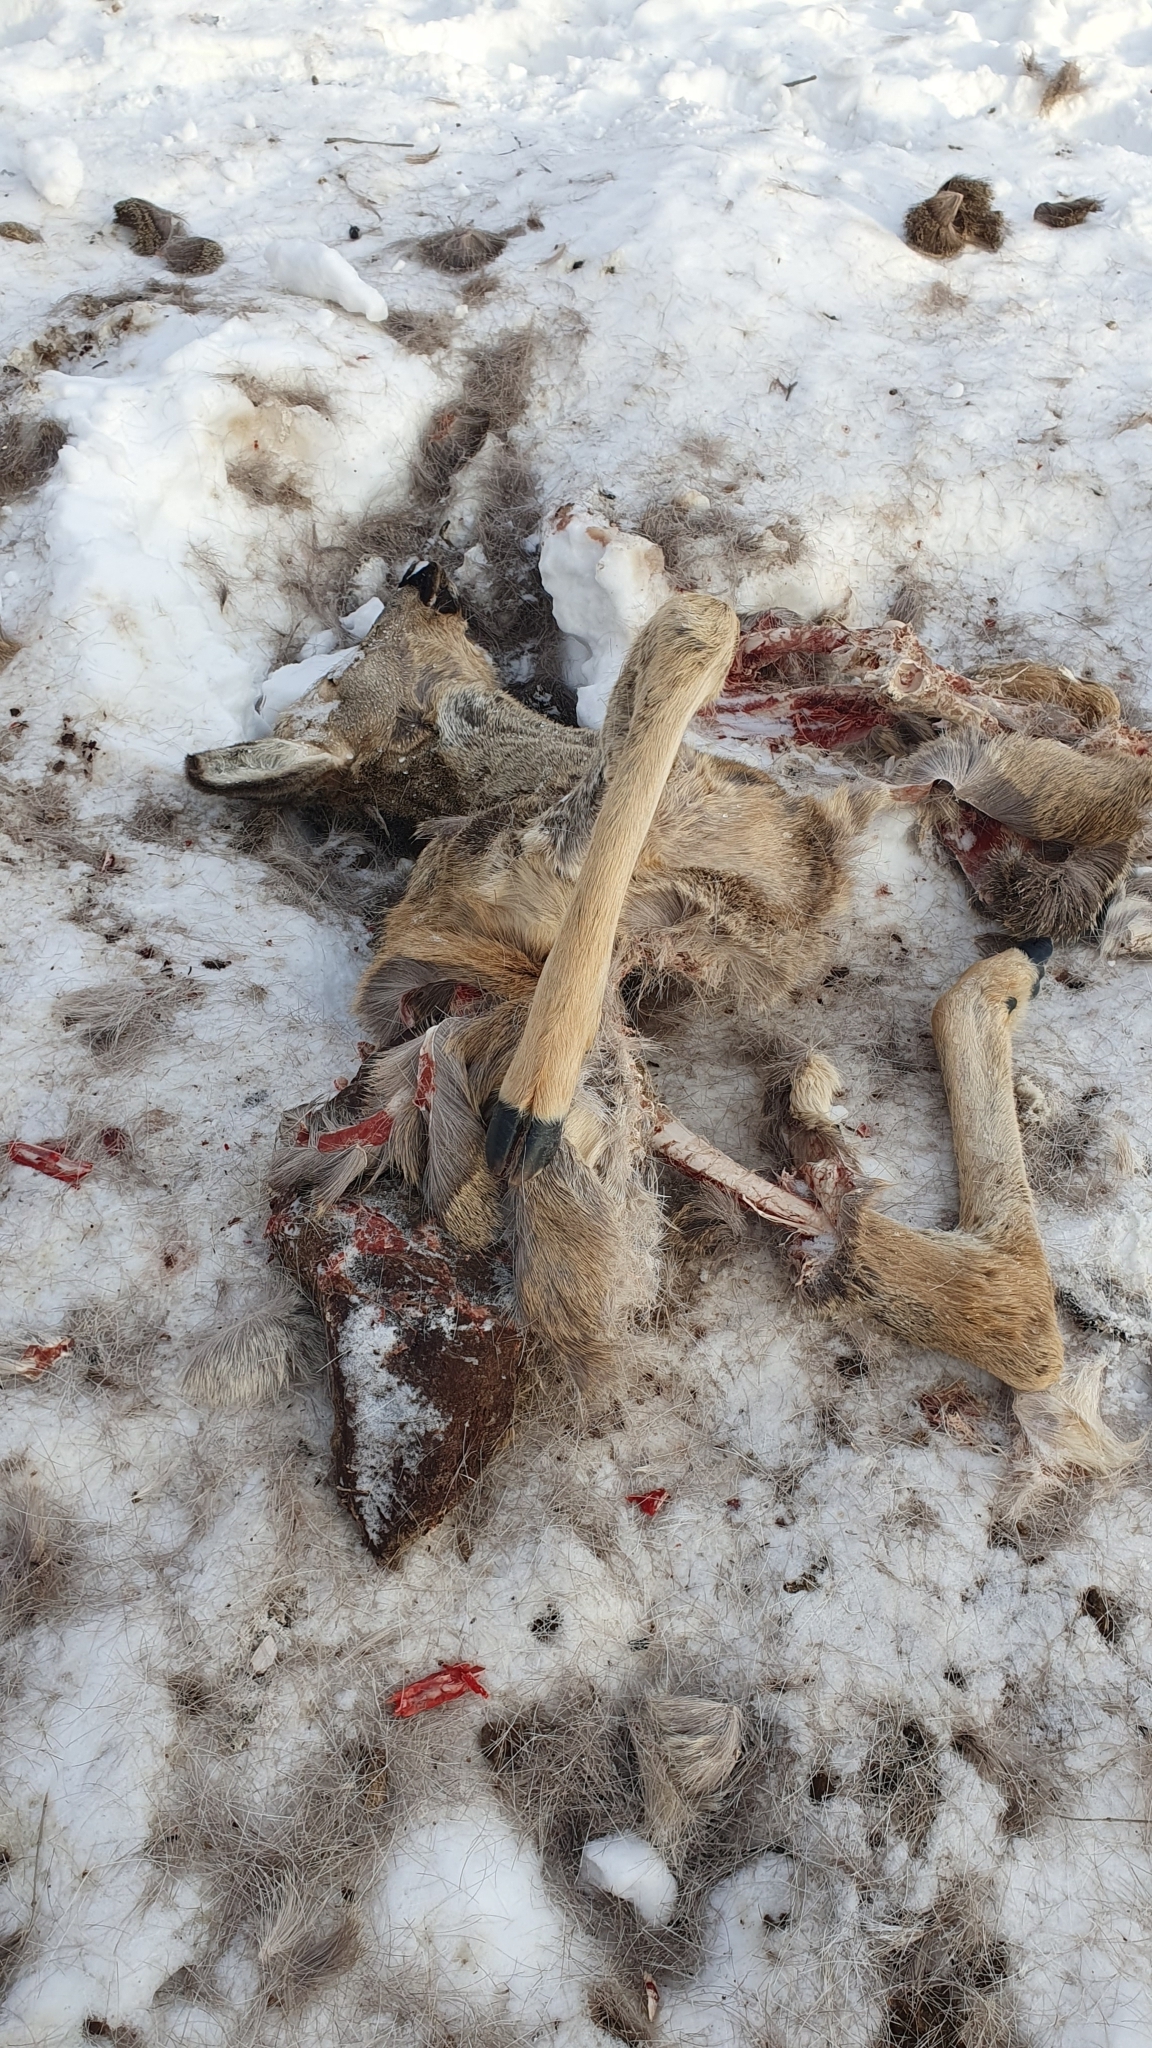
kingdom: Animalia
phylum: Chordata
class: Mammalia
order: Artiodactyla
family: Cervidae
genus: Capreolus
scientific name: Capreolus pygargus
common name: Siberian roe
